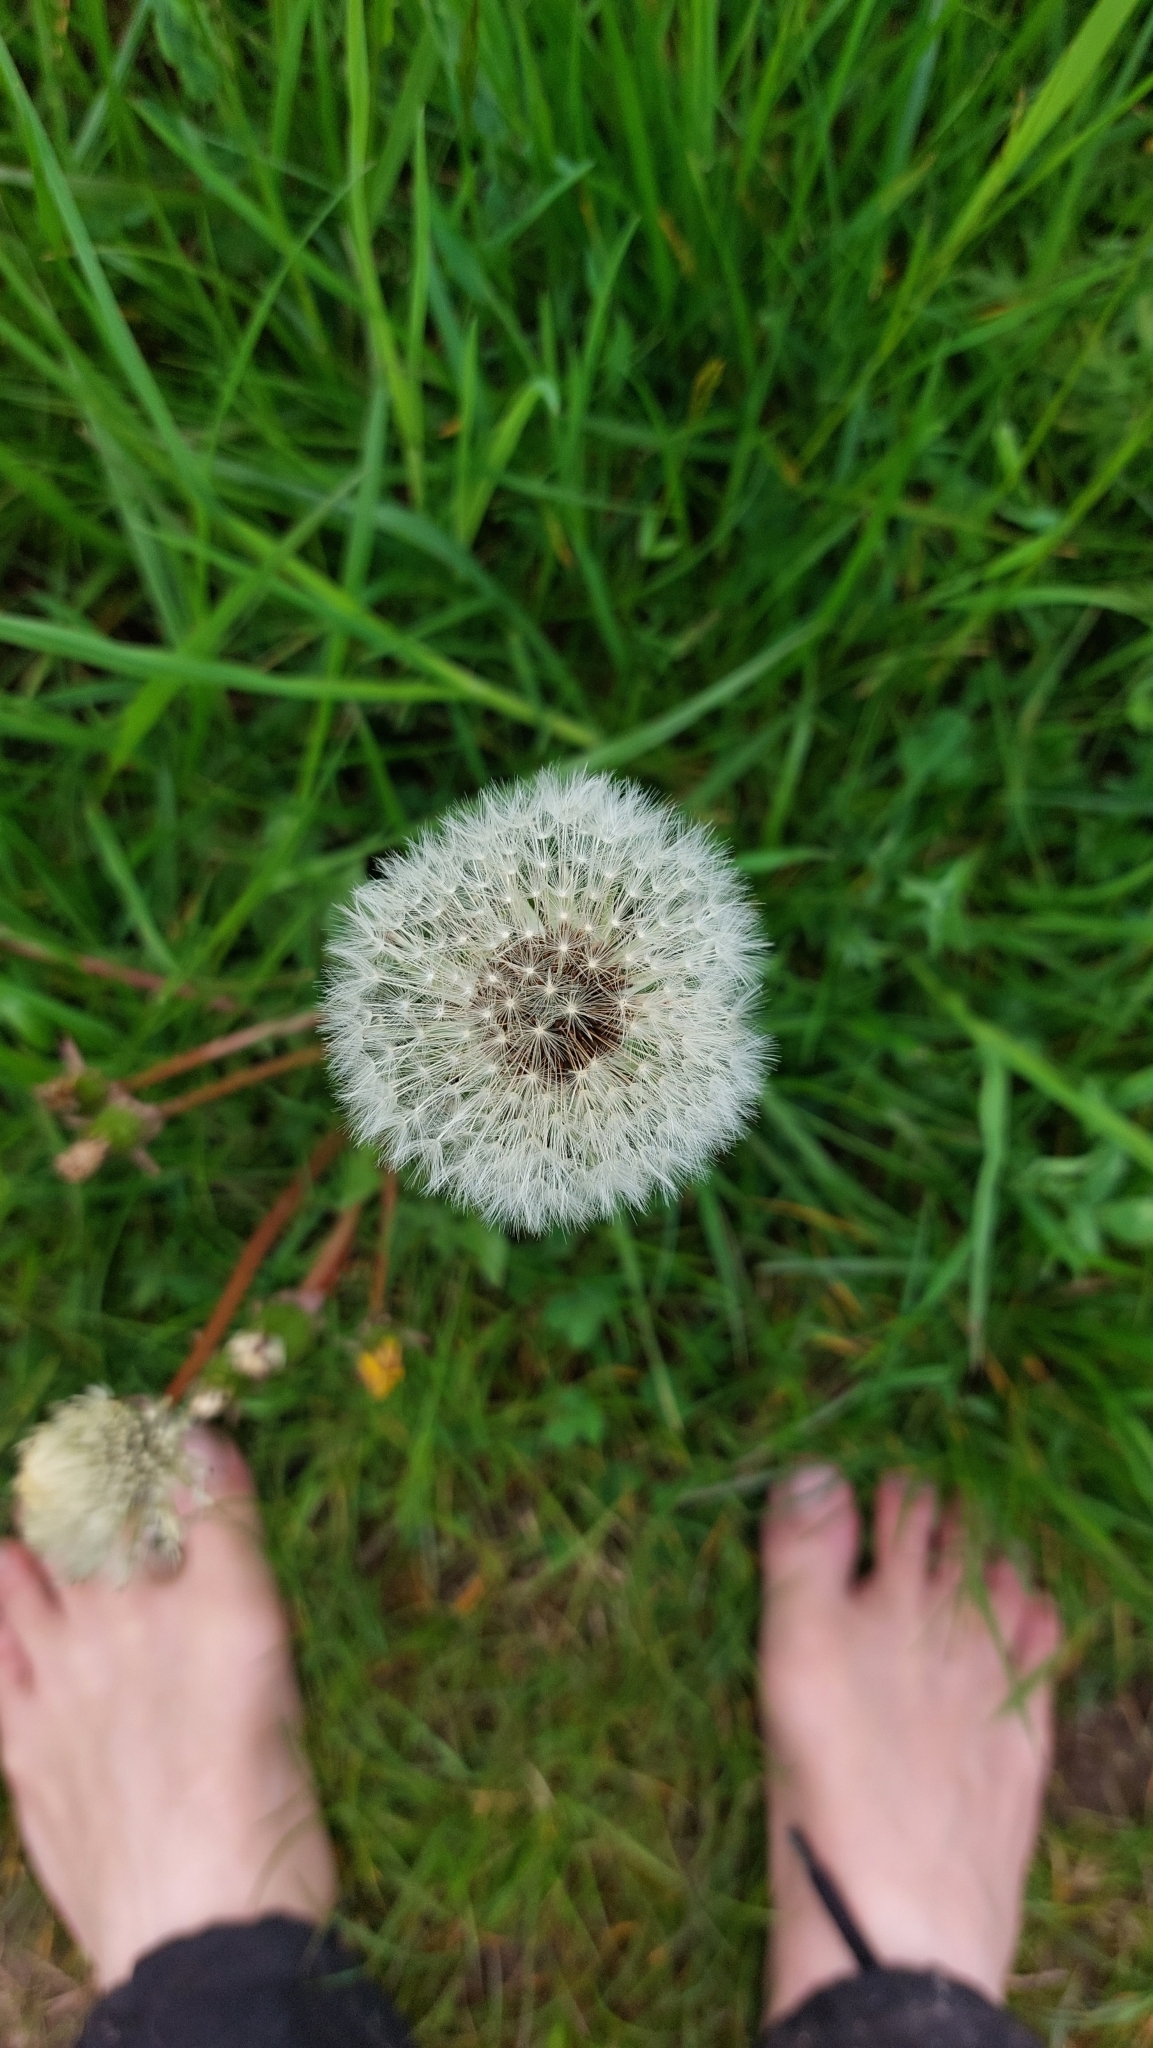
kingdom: Plantae
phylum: Tracheophyta
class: Magnoliopsida
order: Asterales
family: Asteraceae
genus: Taraxacum
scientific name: Taraxacum
